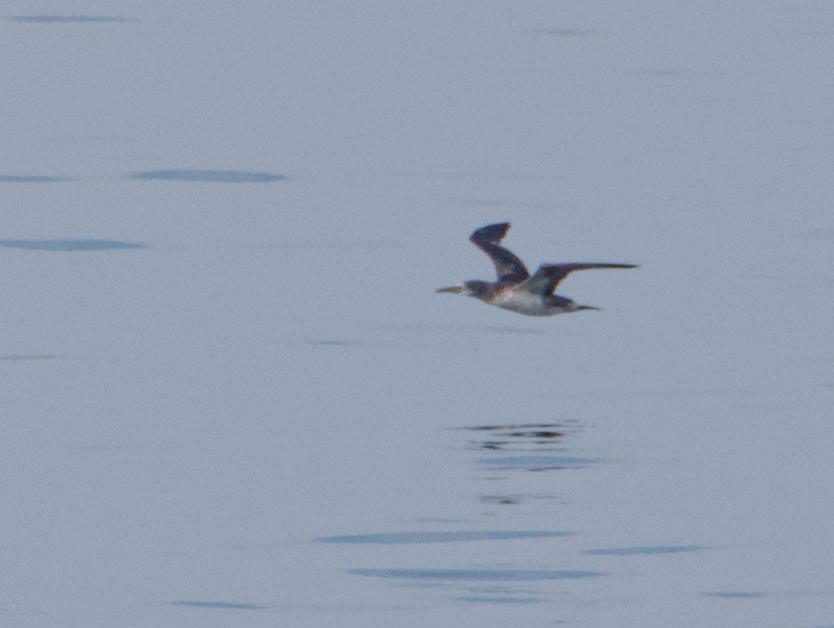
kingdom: Animalia
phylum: Chordata
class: Aves
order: Suliformes
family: Sulidae
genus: Morus
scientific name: Morus bassanus
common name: Northern gannet
